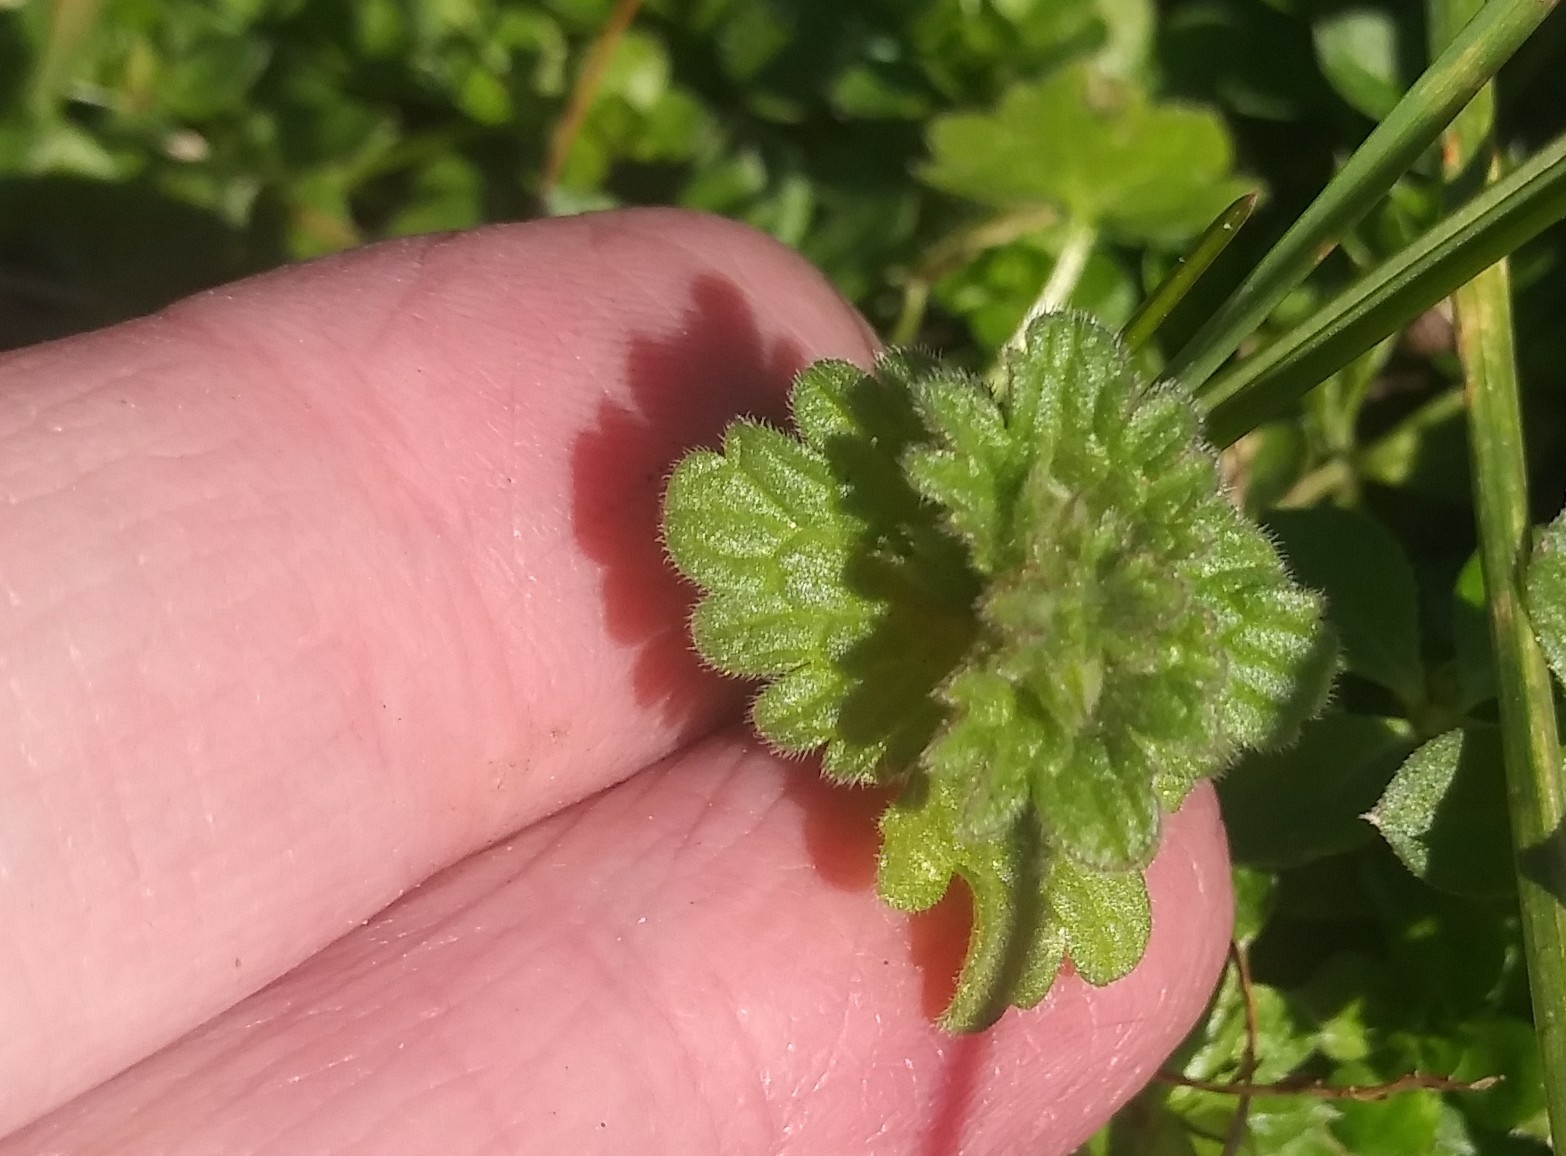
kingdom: Plantae
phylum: Tracheophyta
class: Magnoliopsida
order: Lamiales
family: Lamiaceae
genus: Lamium
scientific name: Lamium amplexicaule
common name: Henbit dead-nettle
